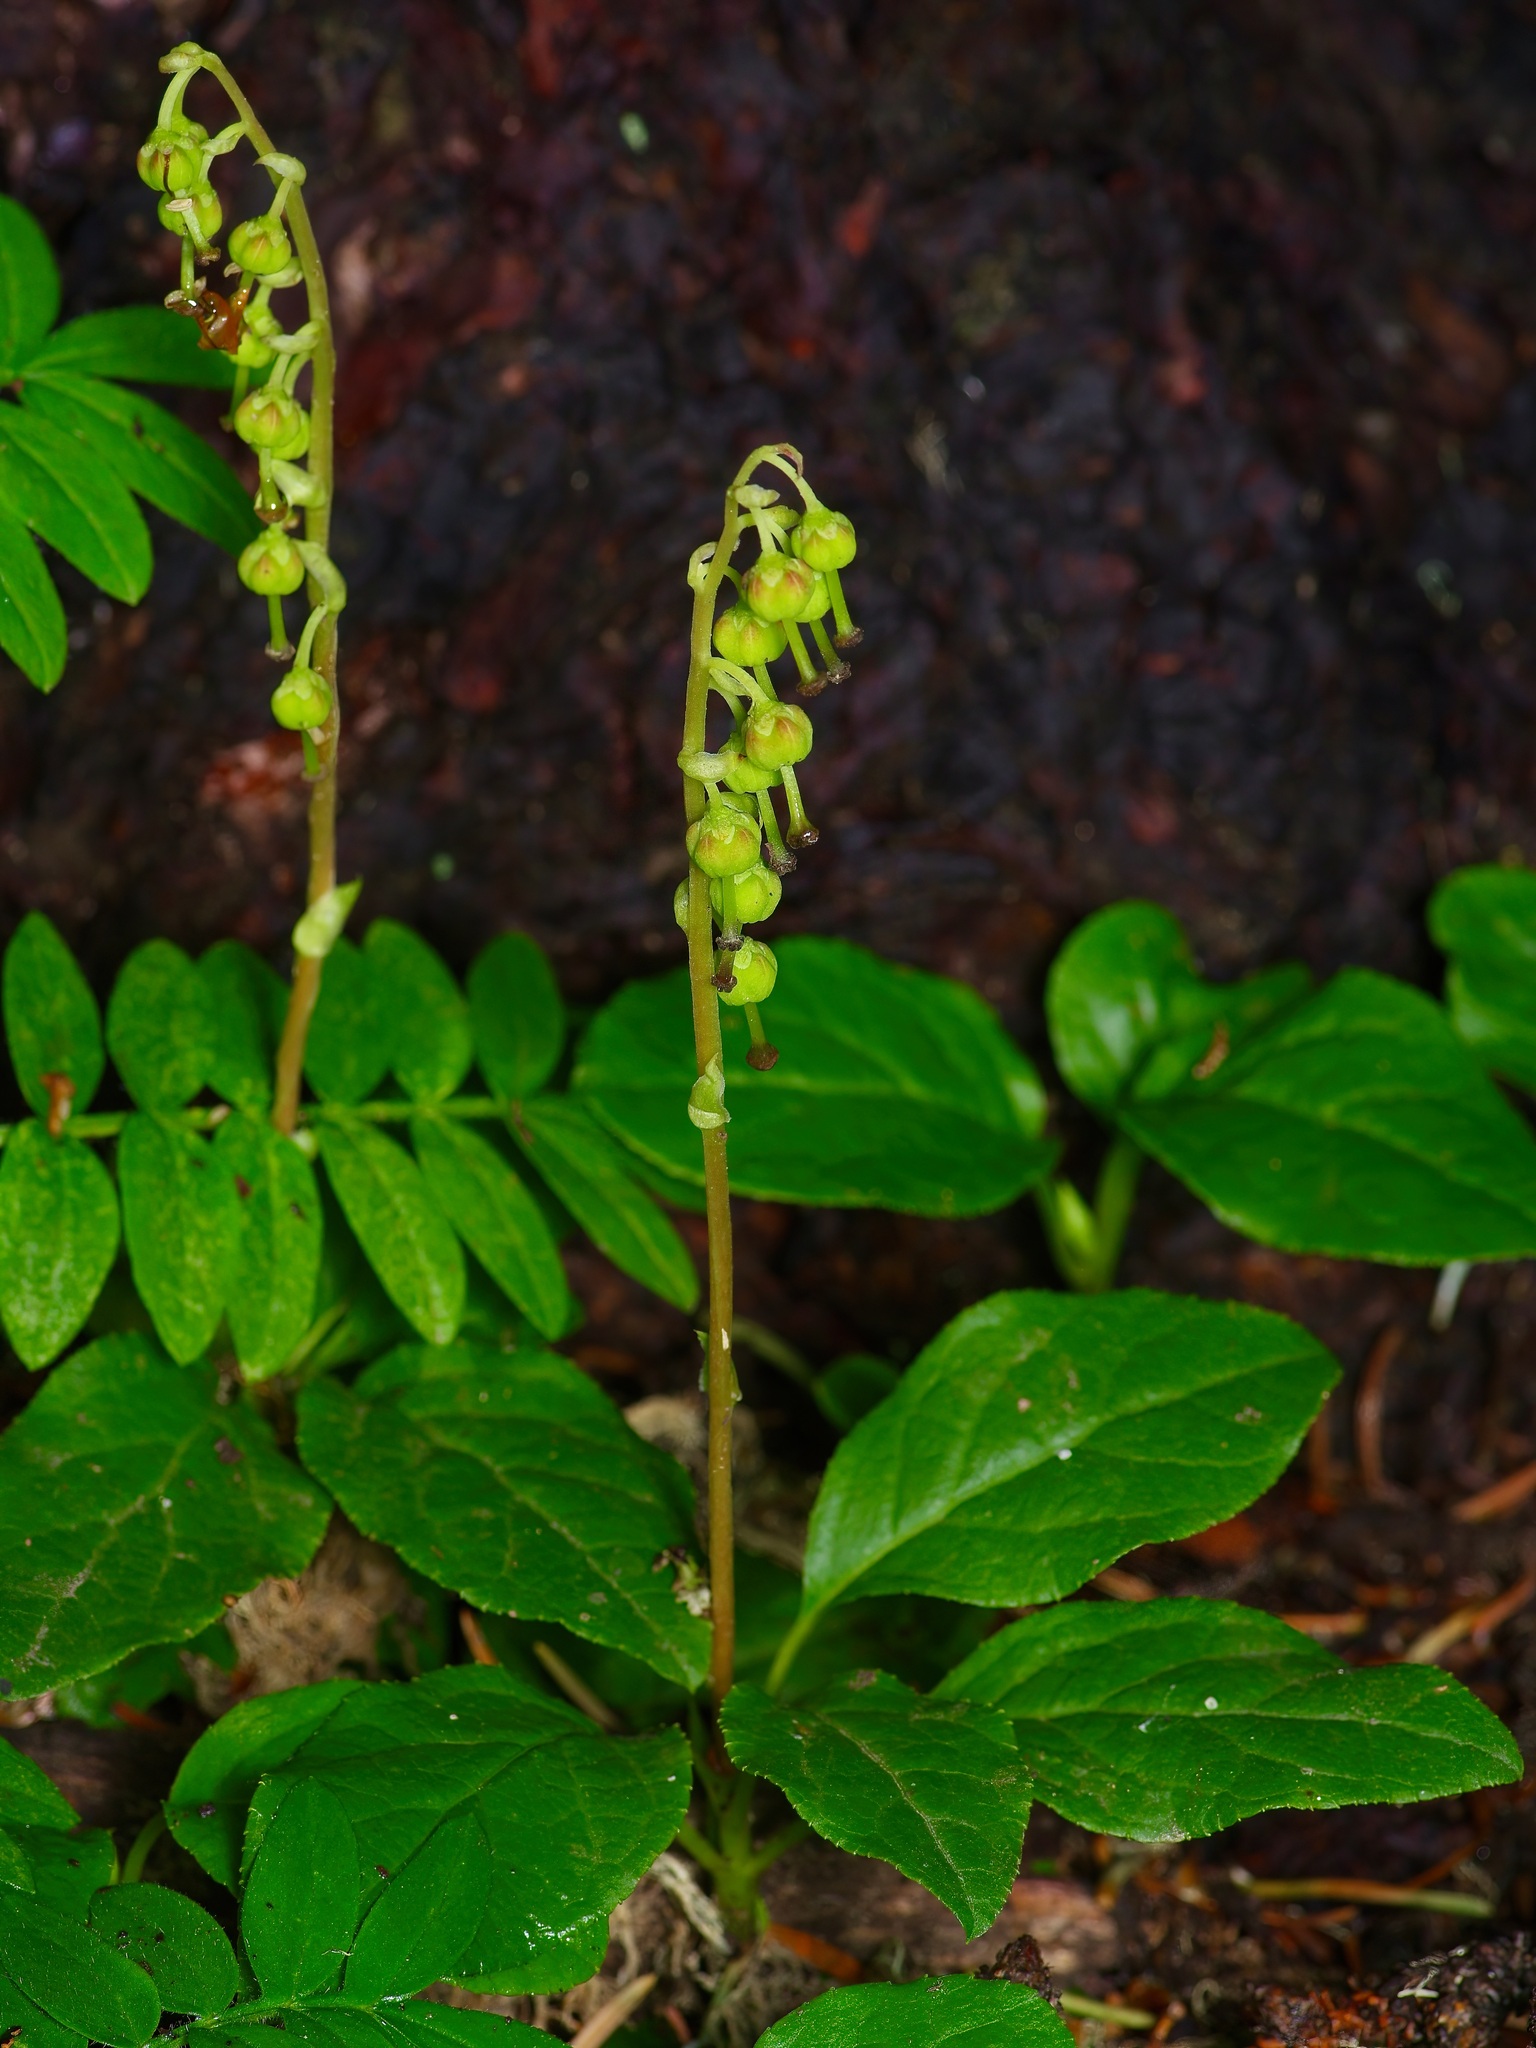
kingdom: Plantae
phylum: Tracheophyta
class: Magnoliopsida
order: Ericales
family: Ericaceae
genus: Orthilia
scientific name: Orthilia secunda
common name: One-sided orthilia
